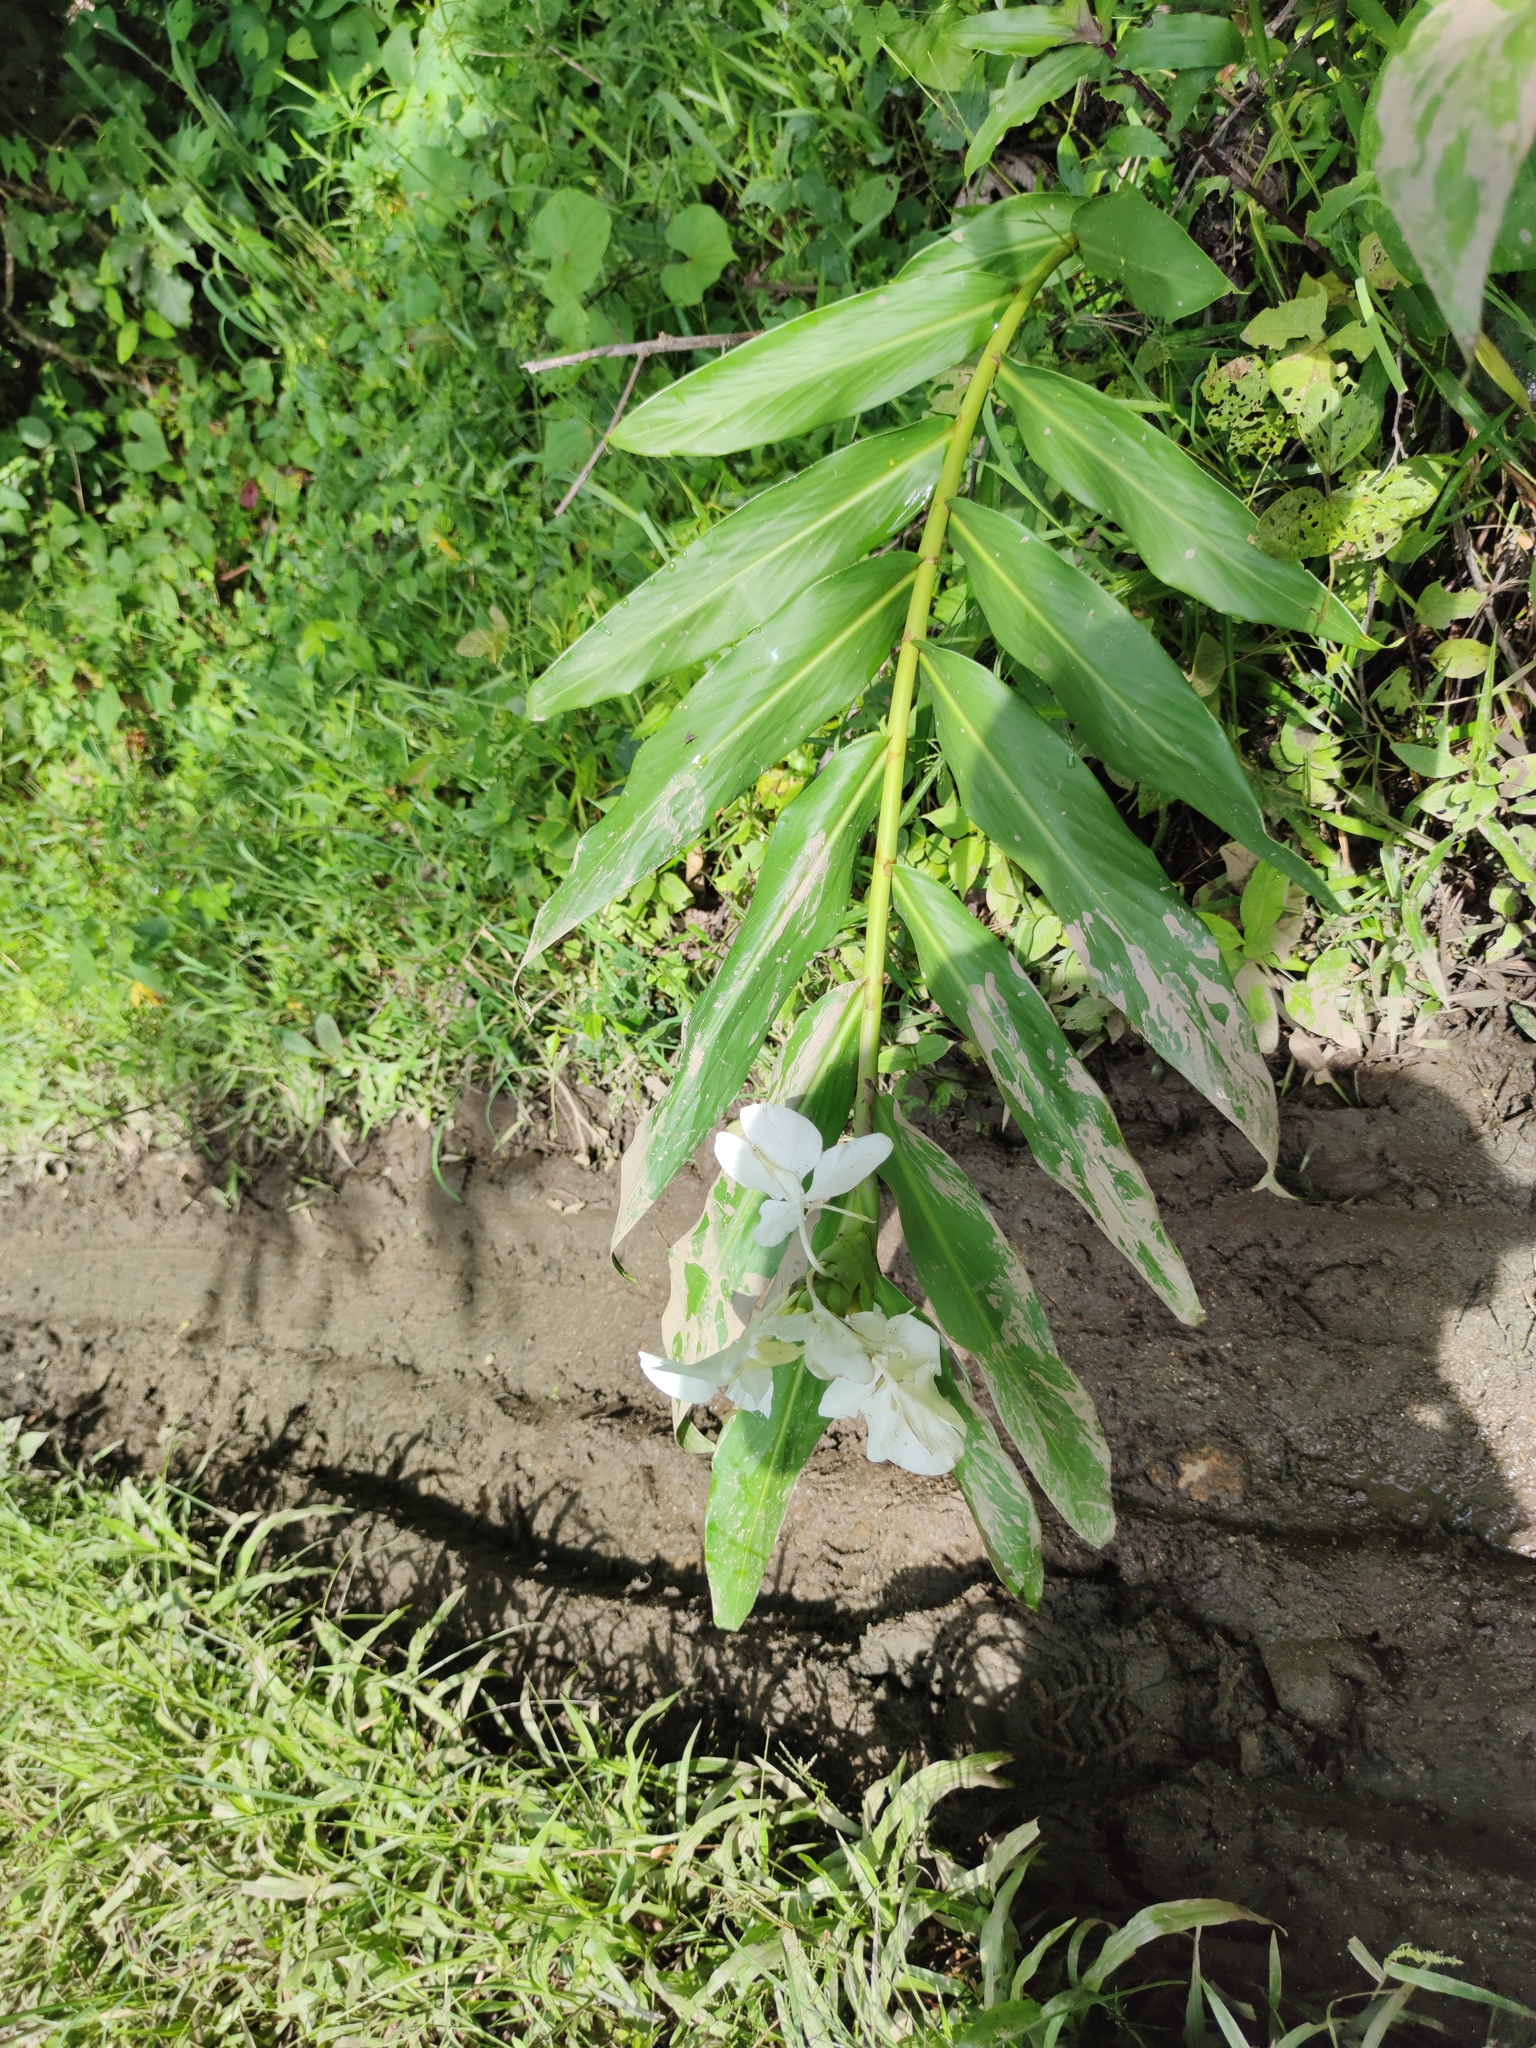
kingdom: Plantae
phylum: Tracheophyta
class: Liliopsida
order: Zingiberales
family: Zingiberaceae
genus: Hedychium
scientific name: Hedychium coronarium
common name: White garland-lily
